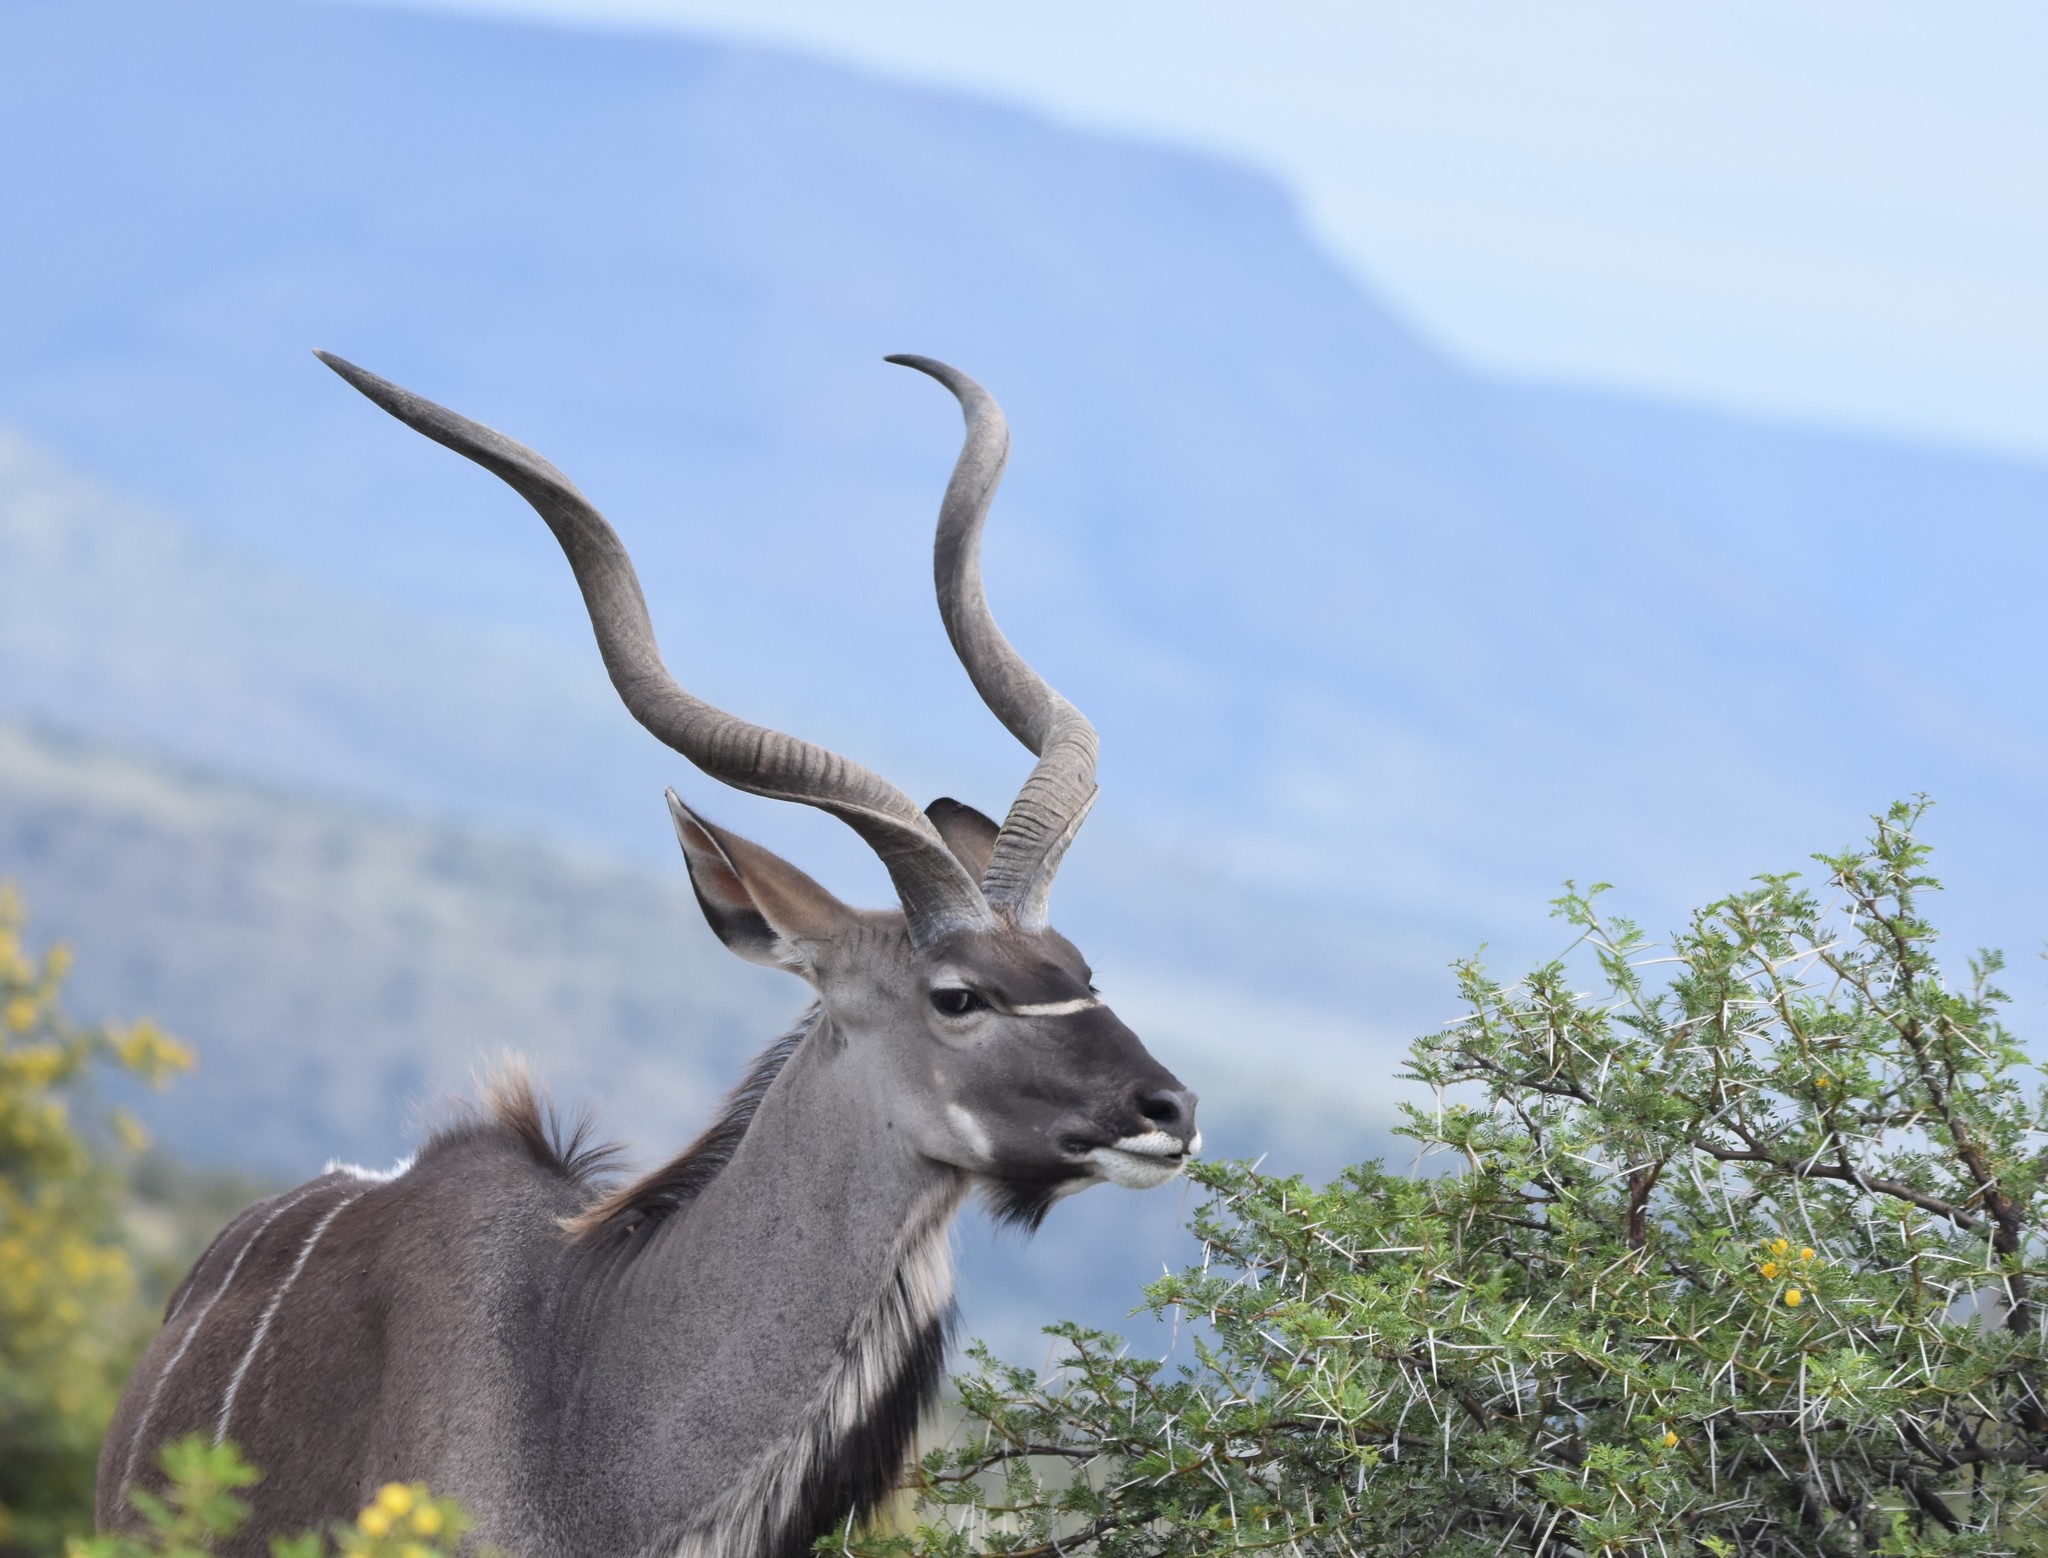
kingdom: Animalia
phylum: Chordata
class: Mammalia
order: Artiodactyla
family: Bovidae
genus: Tragelaphus
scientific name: Tragelaphus strepsiceros
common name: Greater kudu
